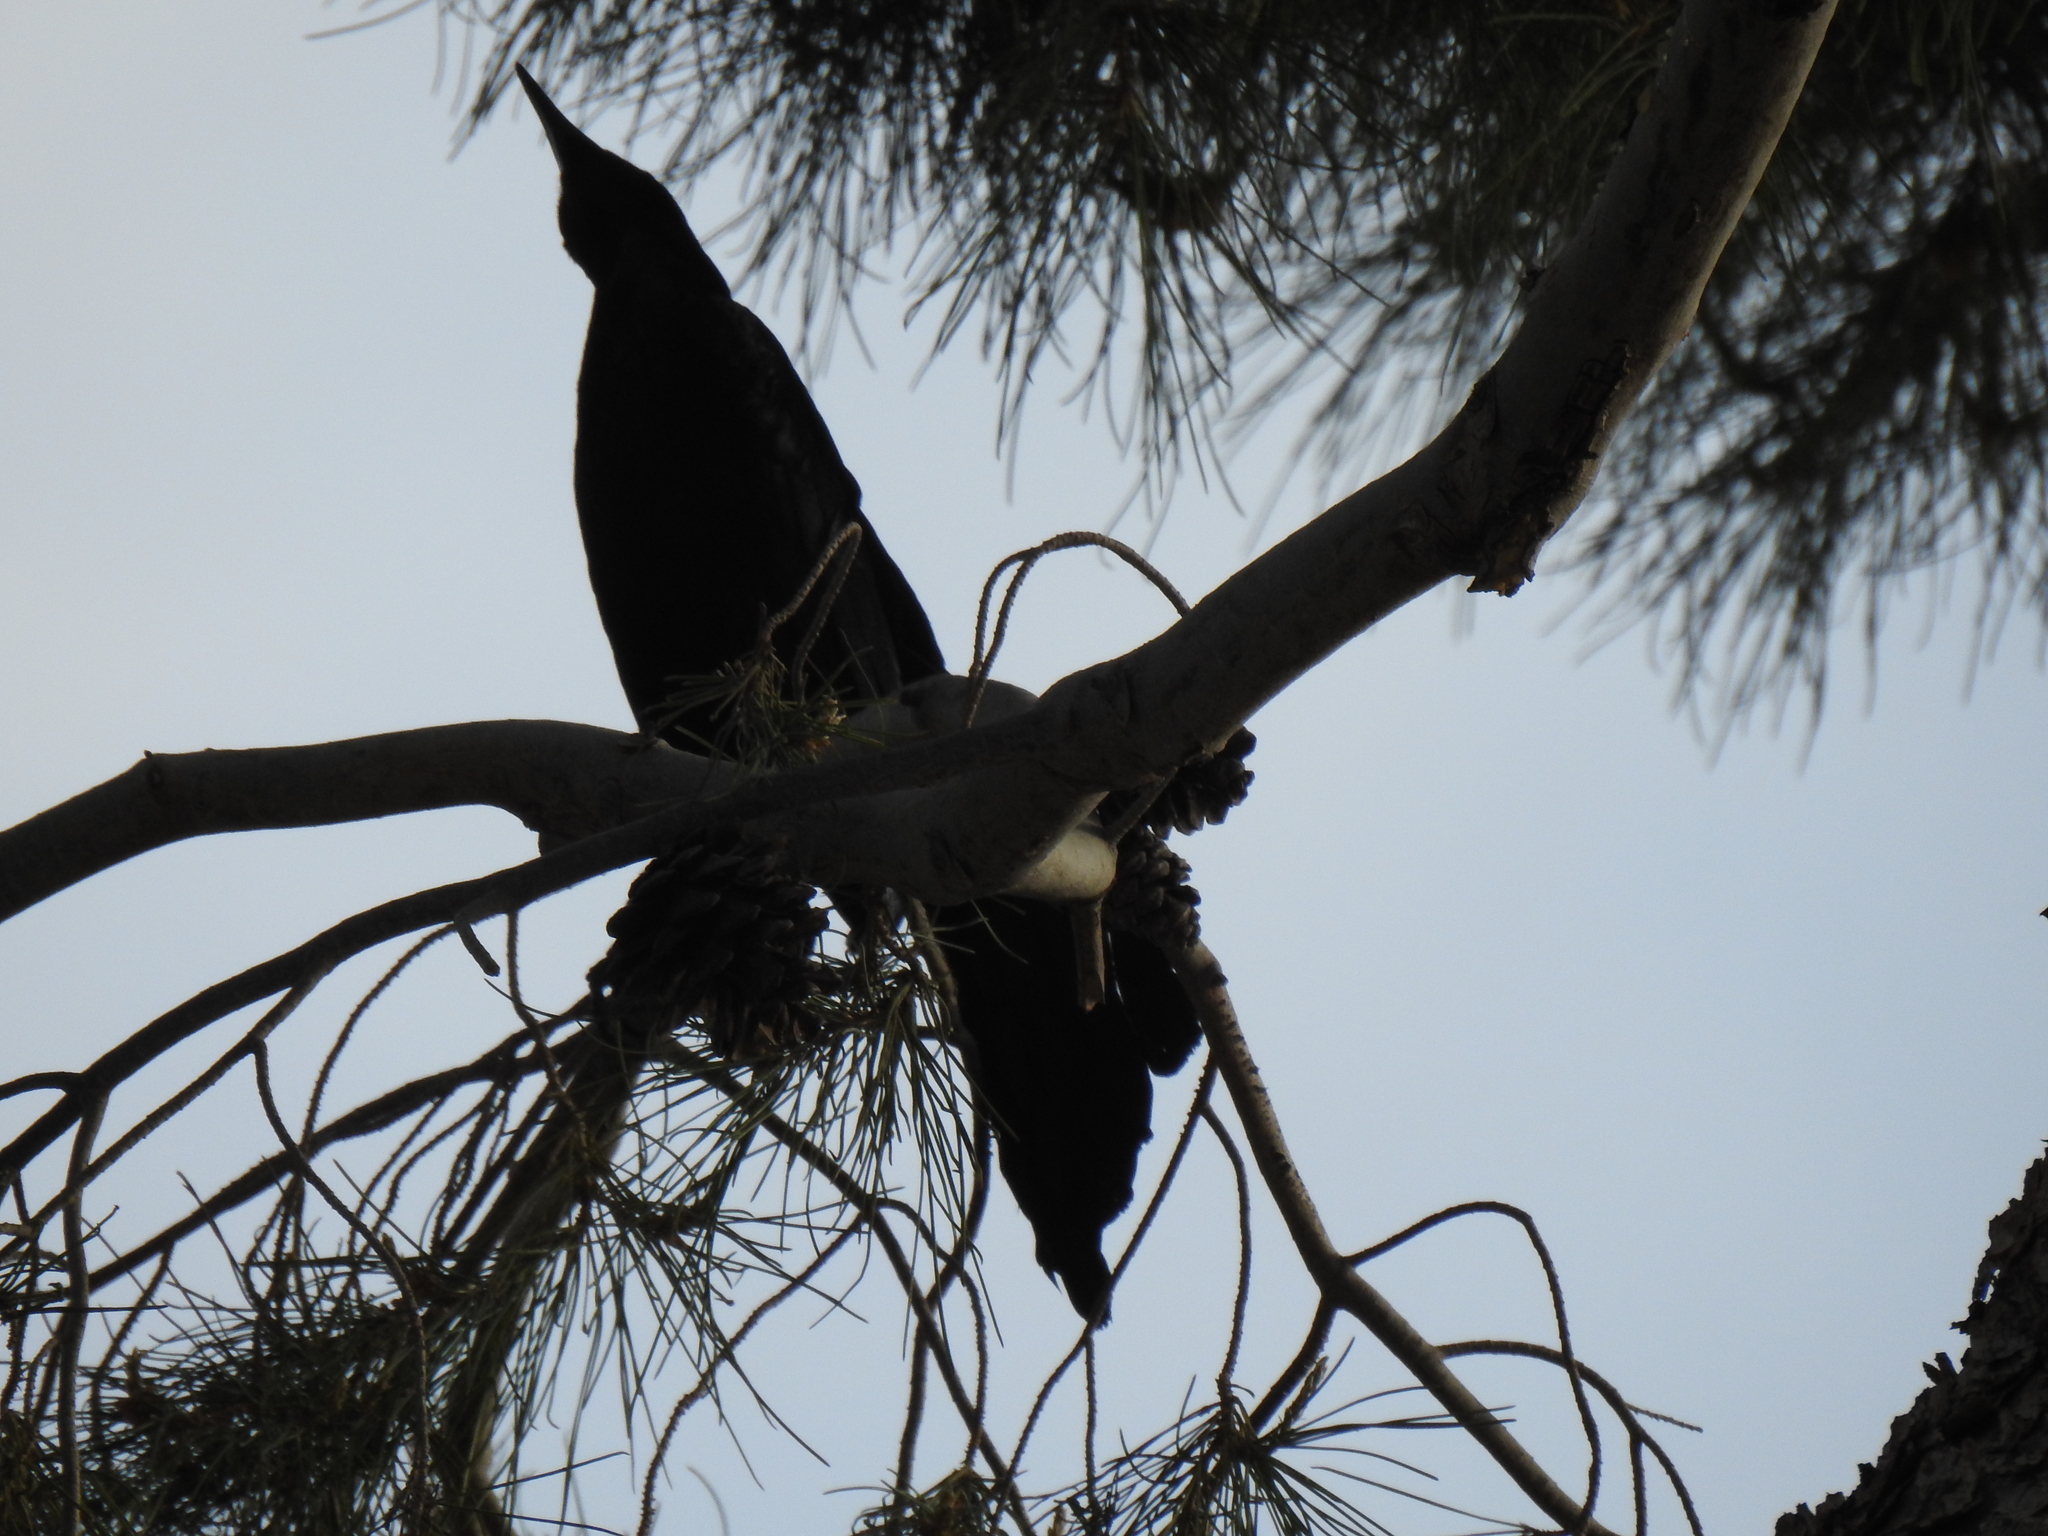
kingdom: Animalia
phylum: Chordata
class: Aves
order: Passeriformes
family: Icteridae
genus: Quiscalus
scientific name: Quiscalus mexicanus
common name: Great-tailed grackle
